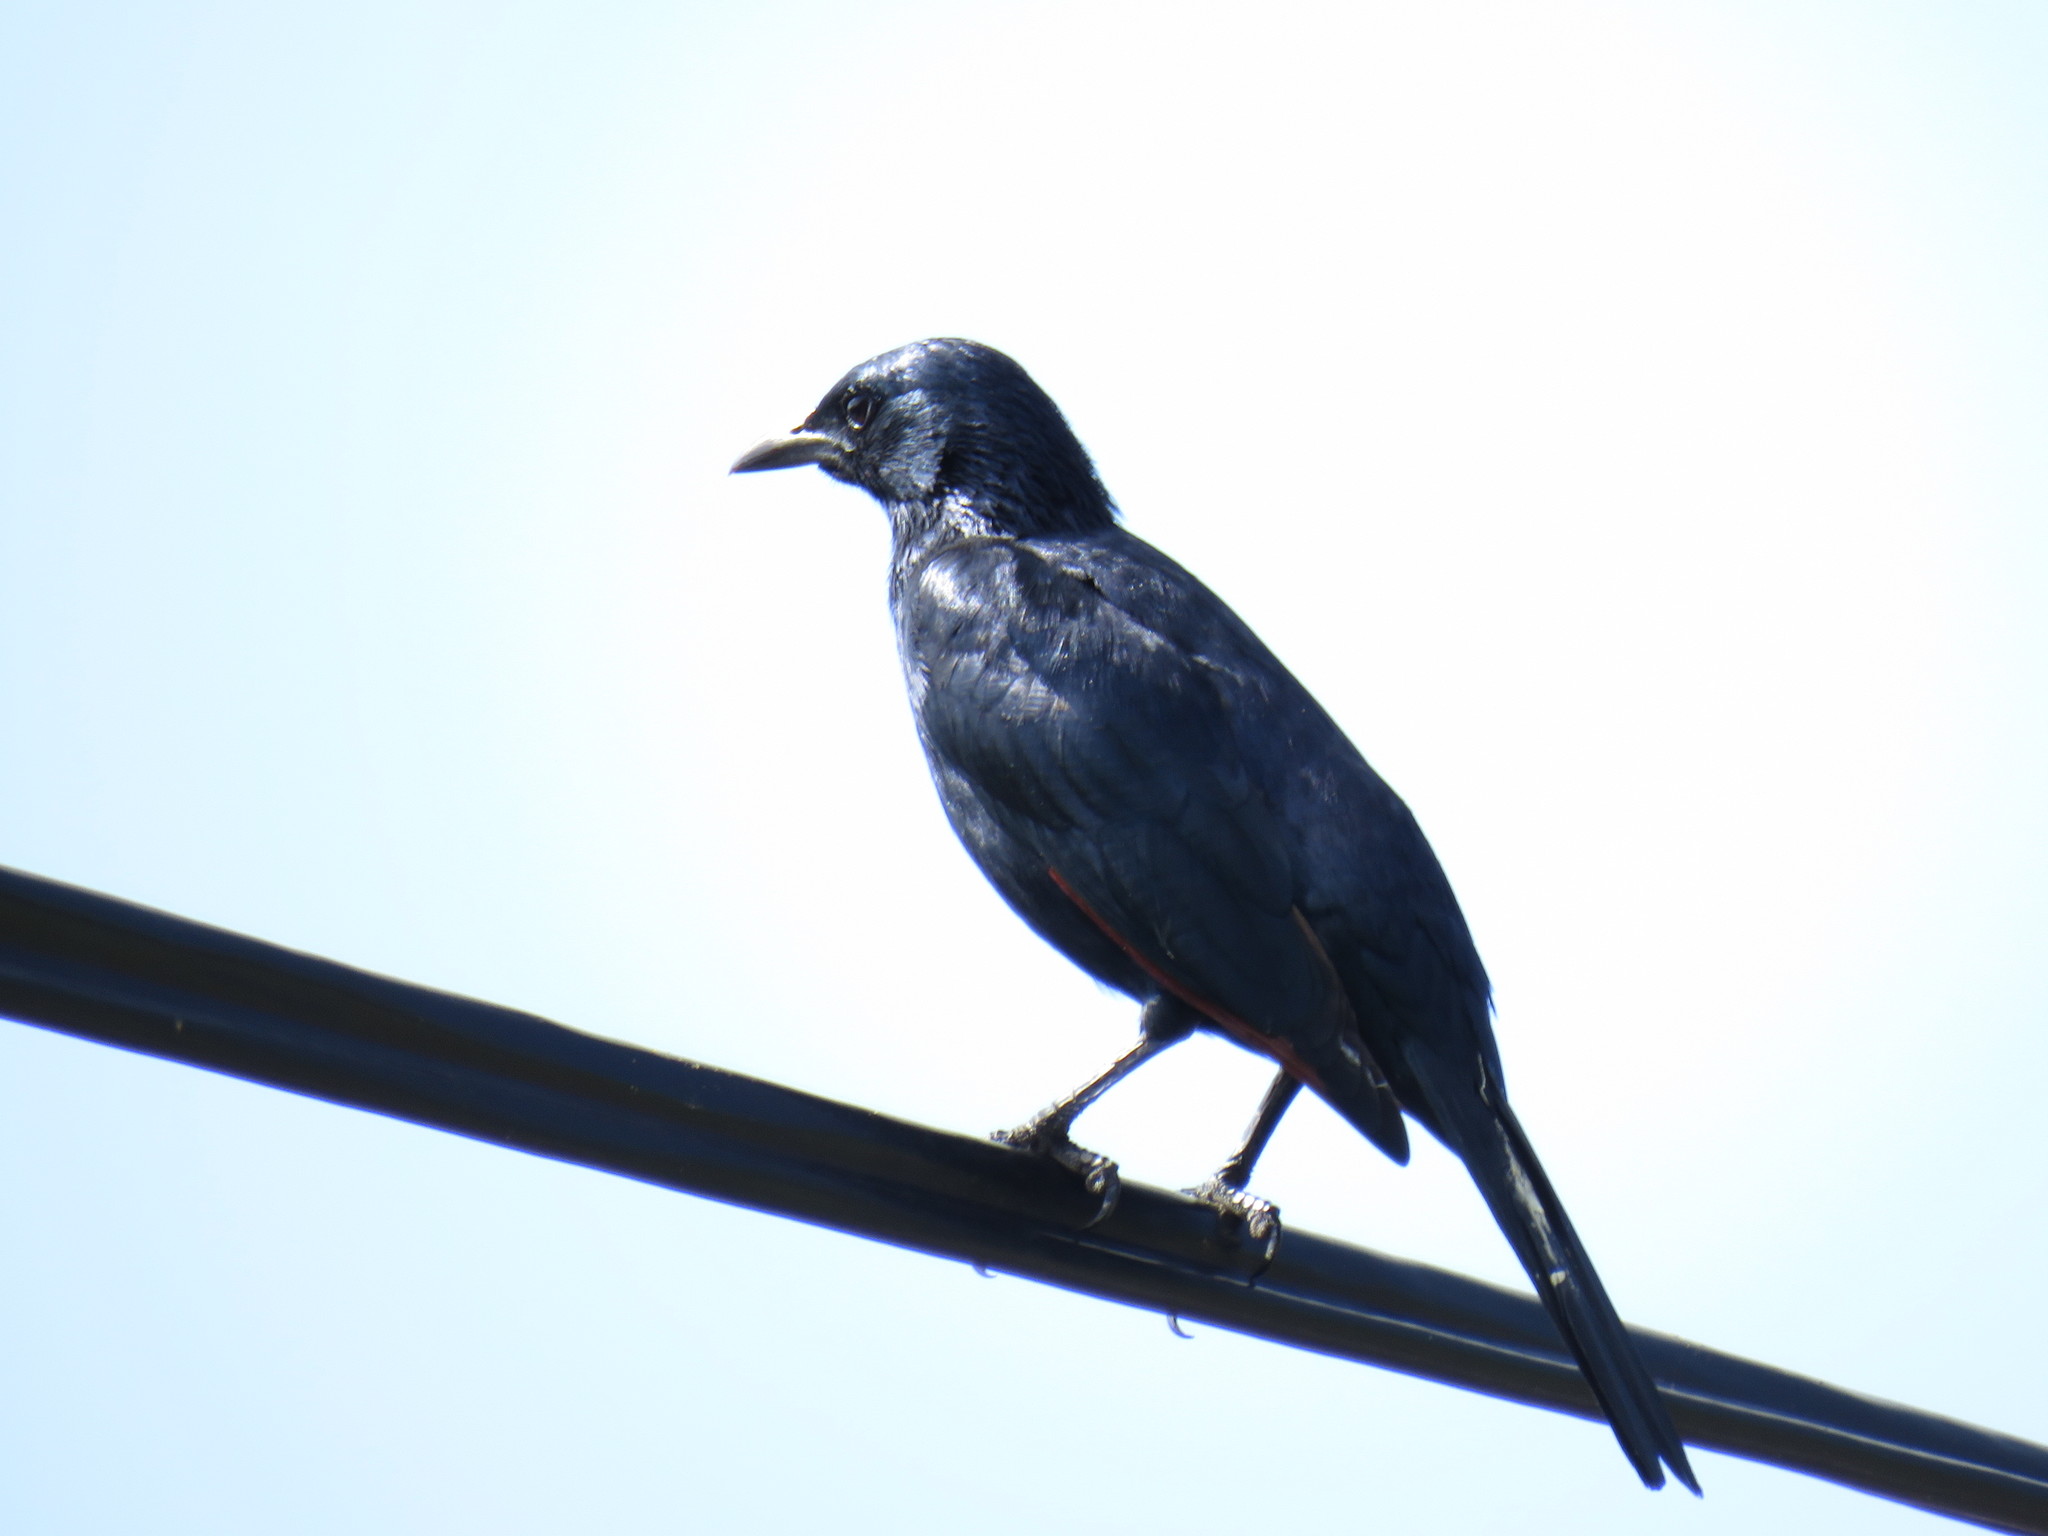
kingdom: Animalia
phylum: Chordata
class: Aves
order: Passeriformes
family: Sturnidae
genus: Onychognathus
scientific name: Onychognathus morio
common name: Red-winged starling
